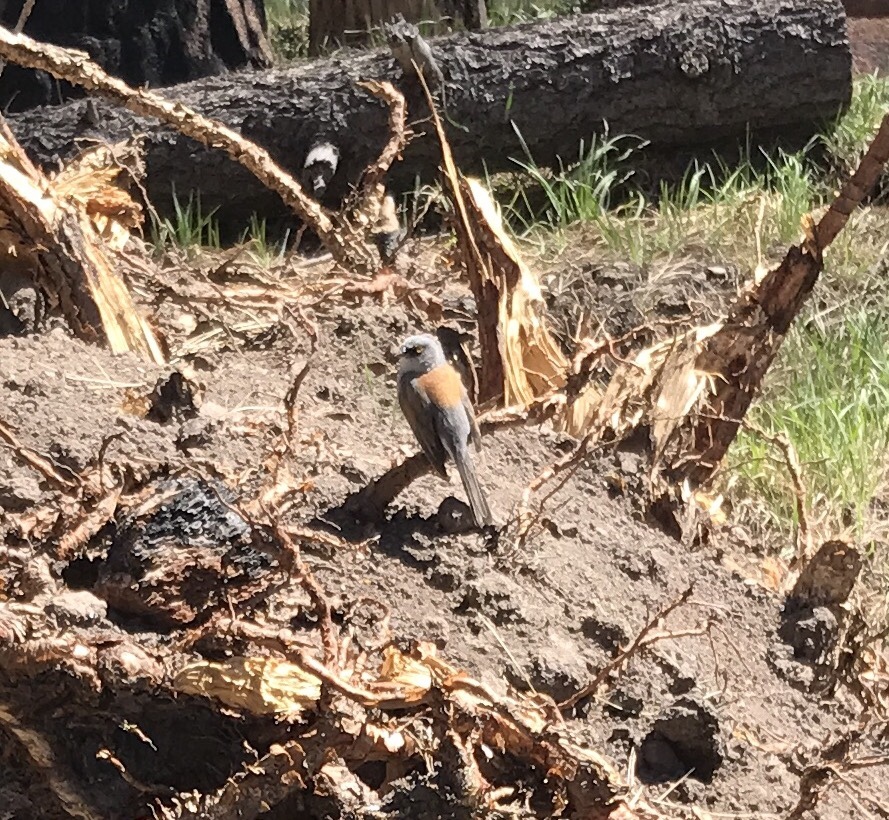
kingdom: Animalia
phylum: Chordata
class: Aves
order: Passeriformes
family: Passerellidae
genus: Junco
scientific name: Junco phaeonotus
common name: Yellow-eyed junco
